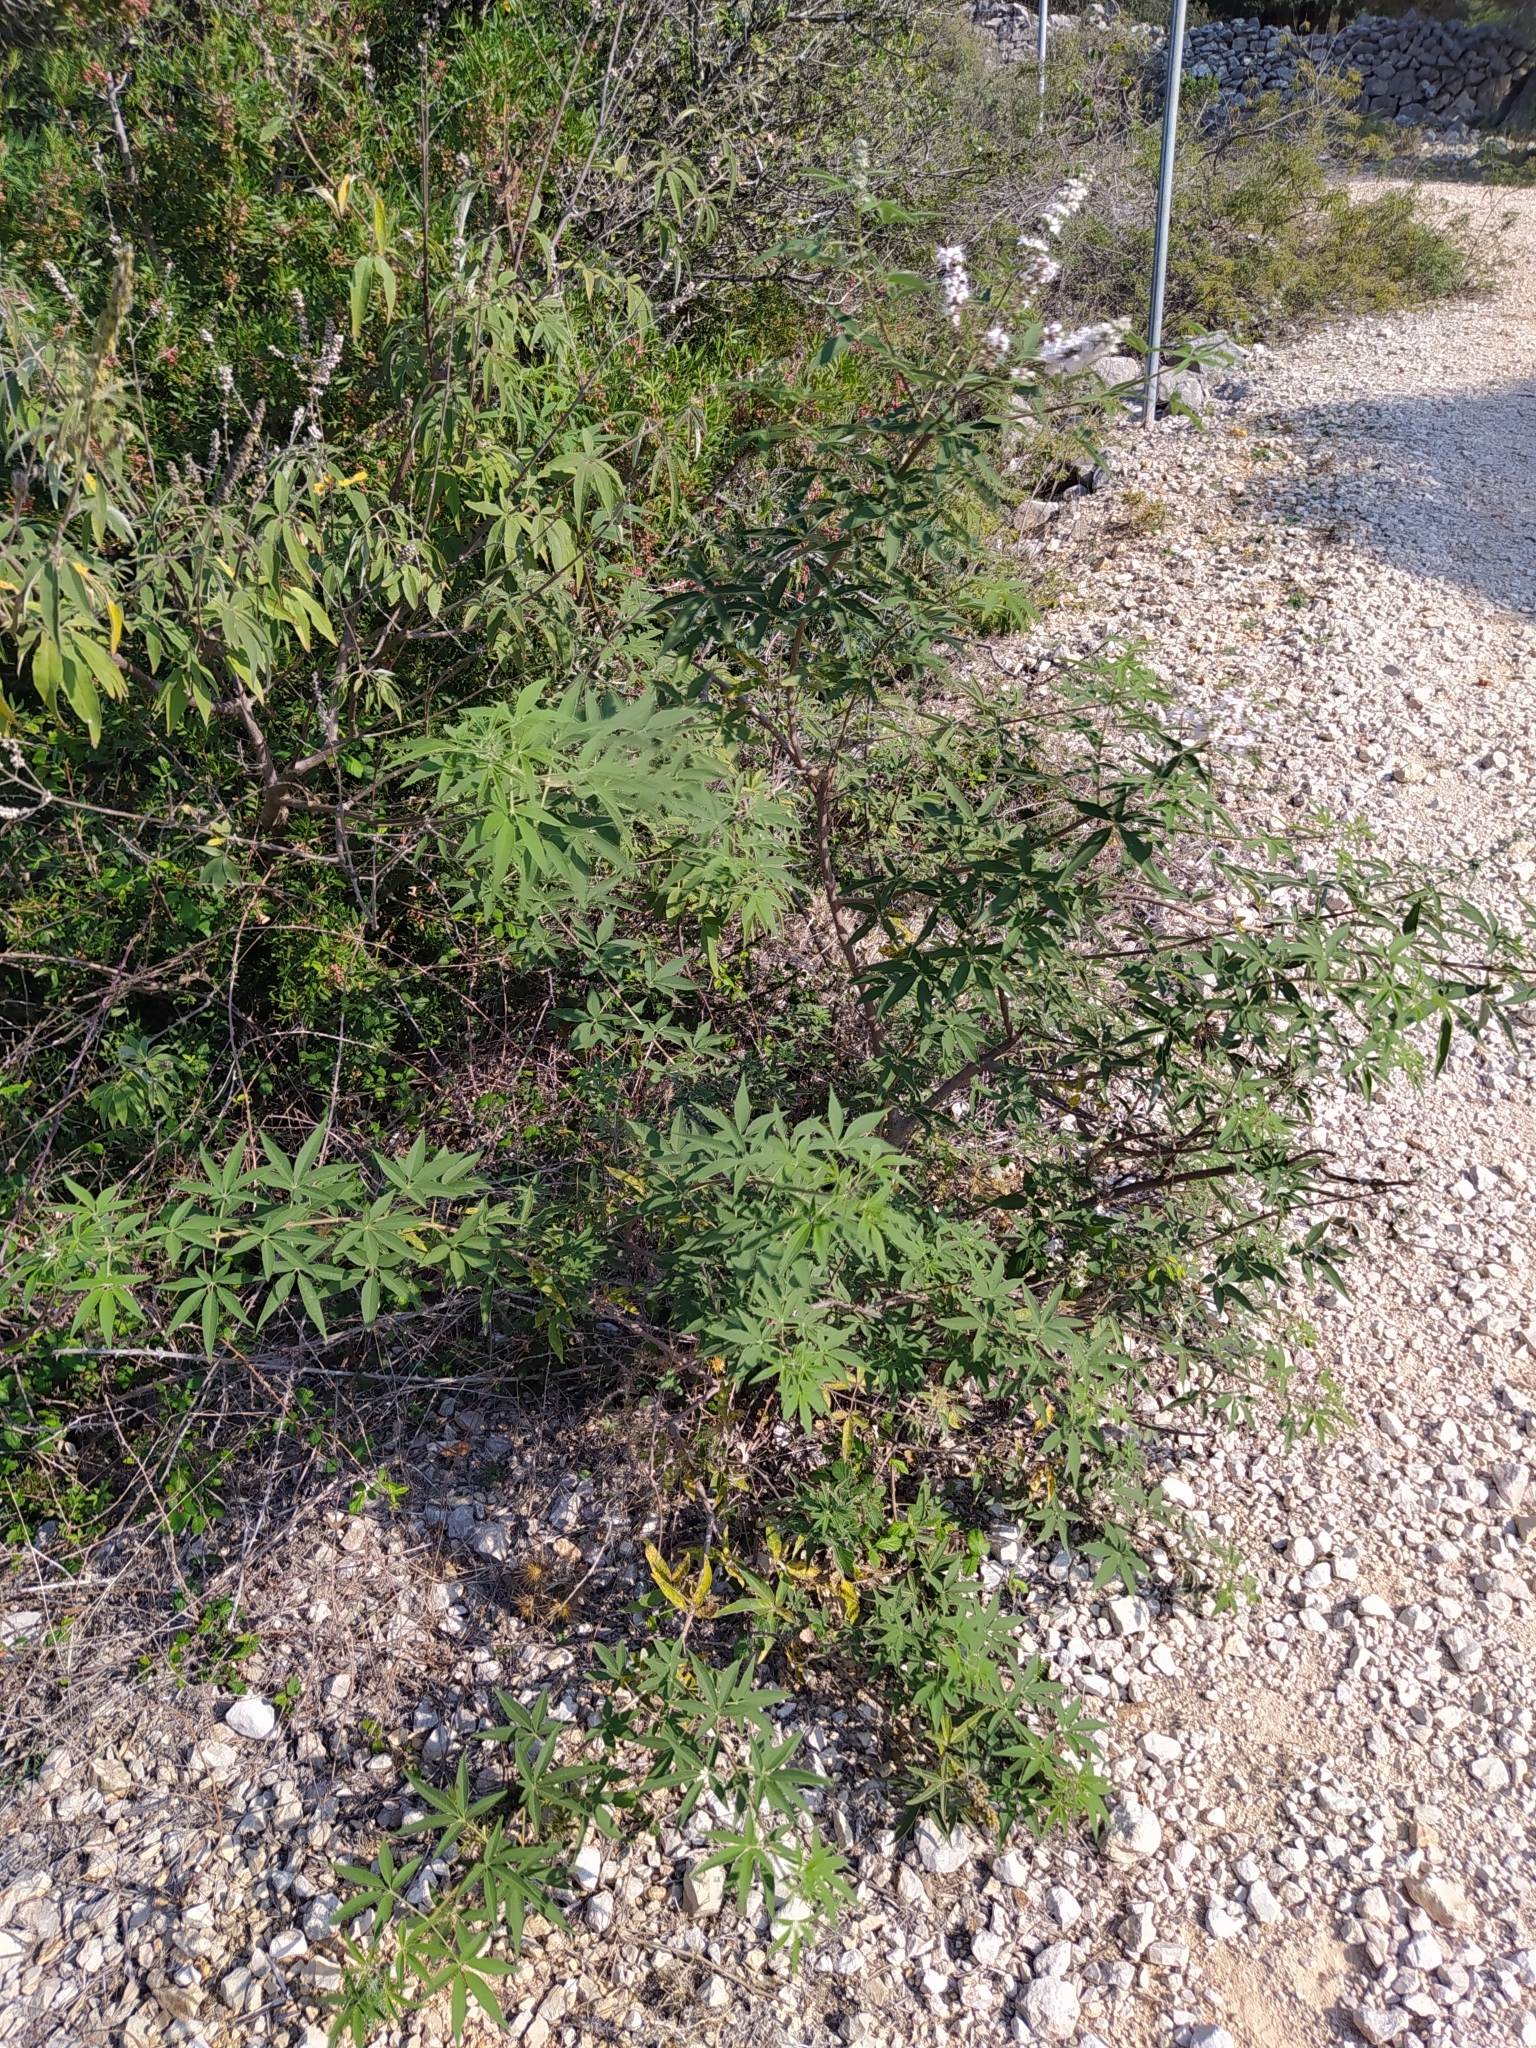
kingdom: Plantae
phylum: Tracheophyta
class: Magnoliopsida
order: Lamiales
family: Lamiaceae
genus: Vitex
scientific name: Vitex agnus-castus
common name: Chasteberry
